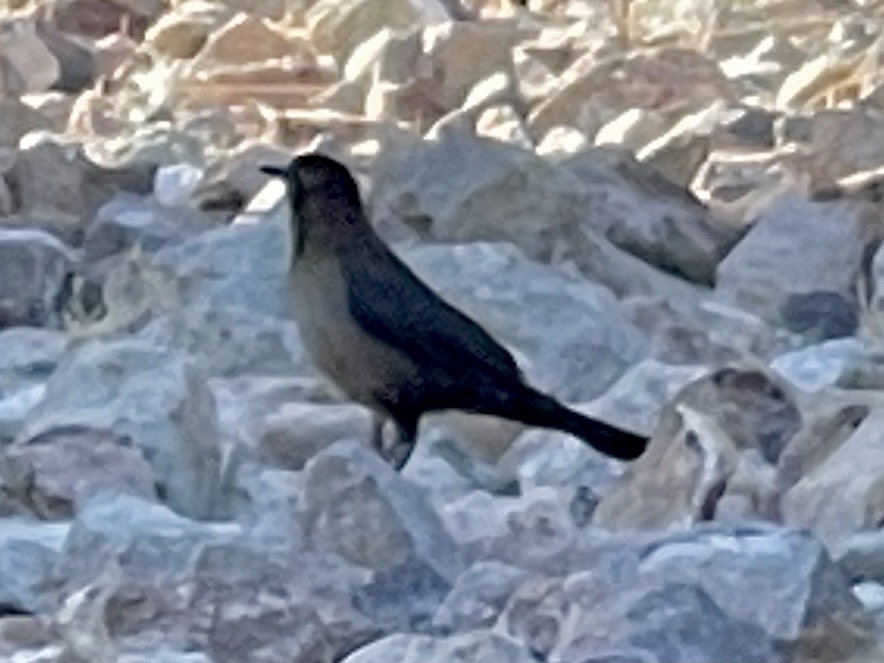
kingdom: Animalia
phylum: Chordata
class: Aves
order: Passeriformes
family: Icteridae
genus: Quiscalus
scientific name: Quiscalus mexicanus
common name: Great-tailed grackle
